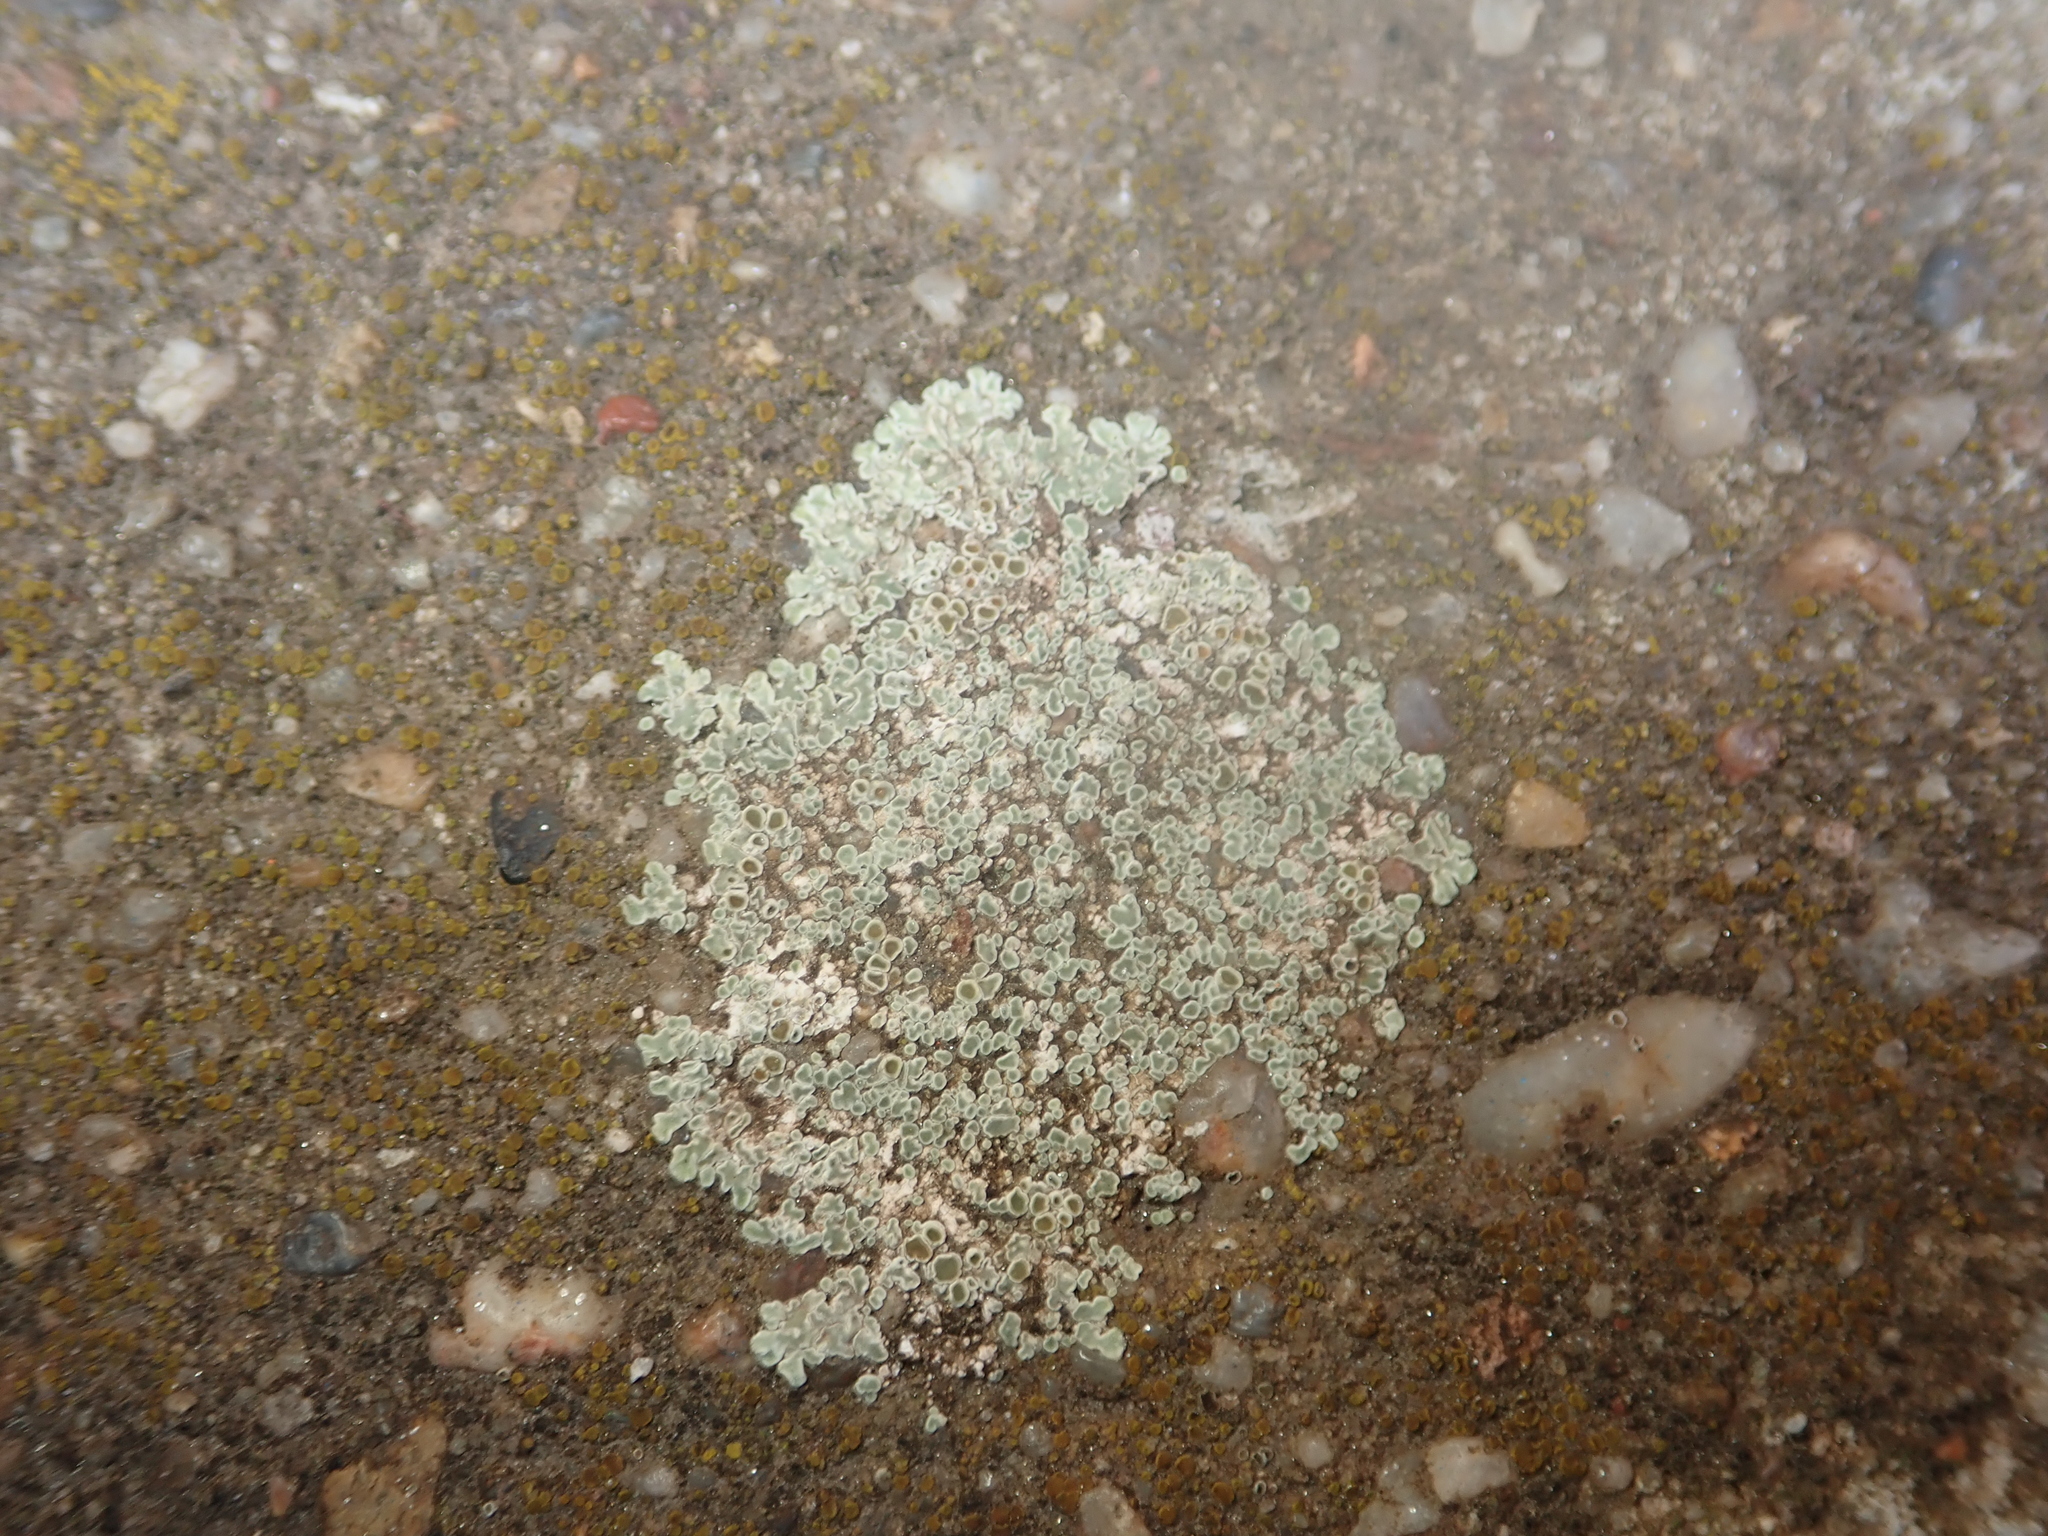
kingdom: Fungi
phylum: Ascomycota
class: Lecanoromycetes
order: Lecanorales
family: Lecanoraceae
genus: Protoparmeliopsis
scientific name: Protoparmeliopsis muralis
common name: Stonewall rim lichen
